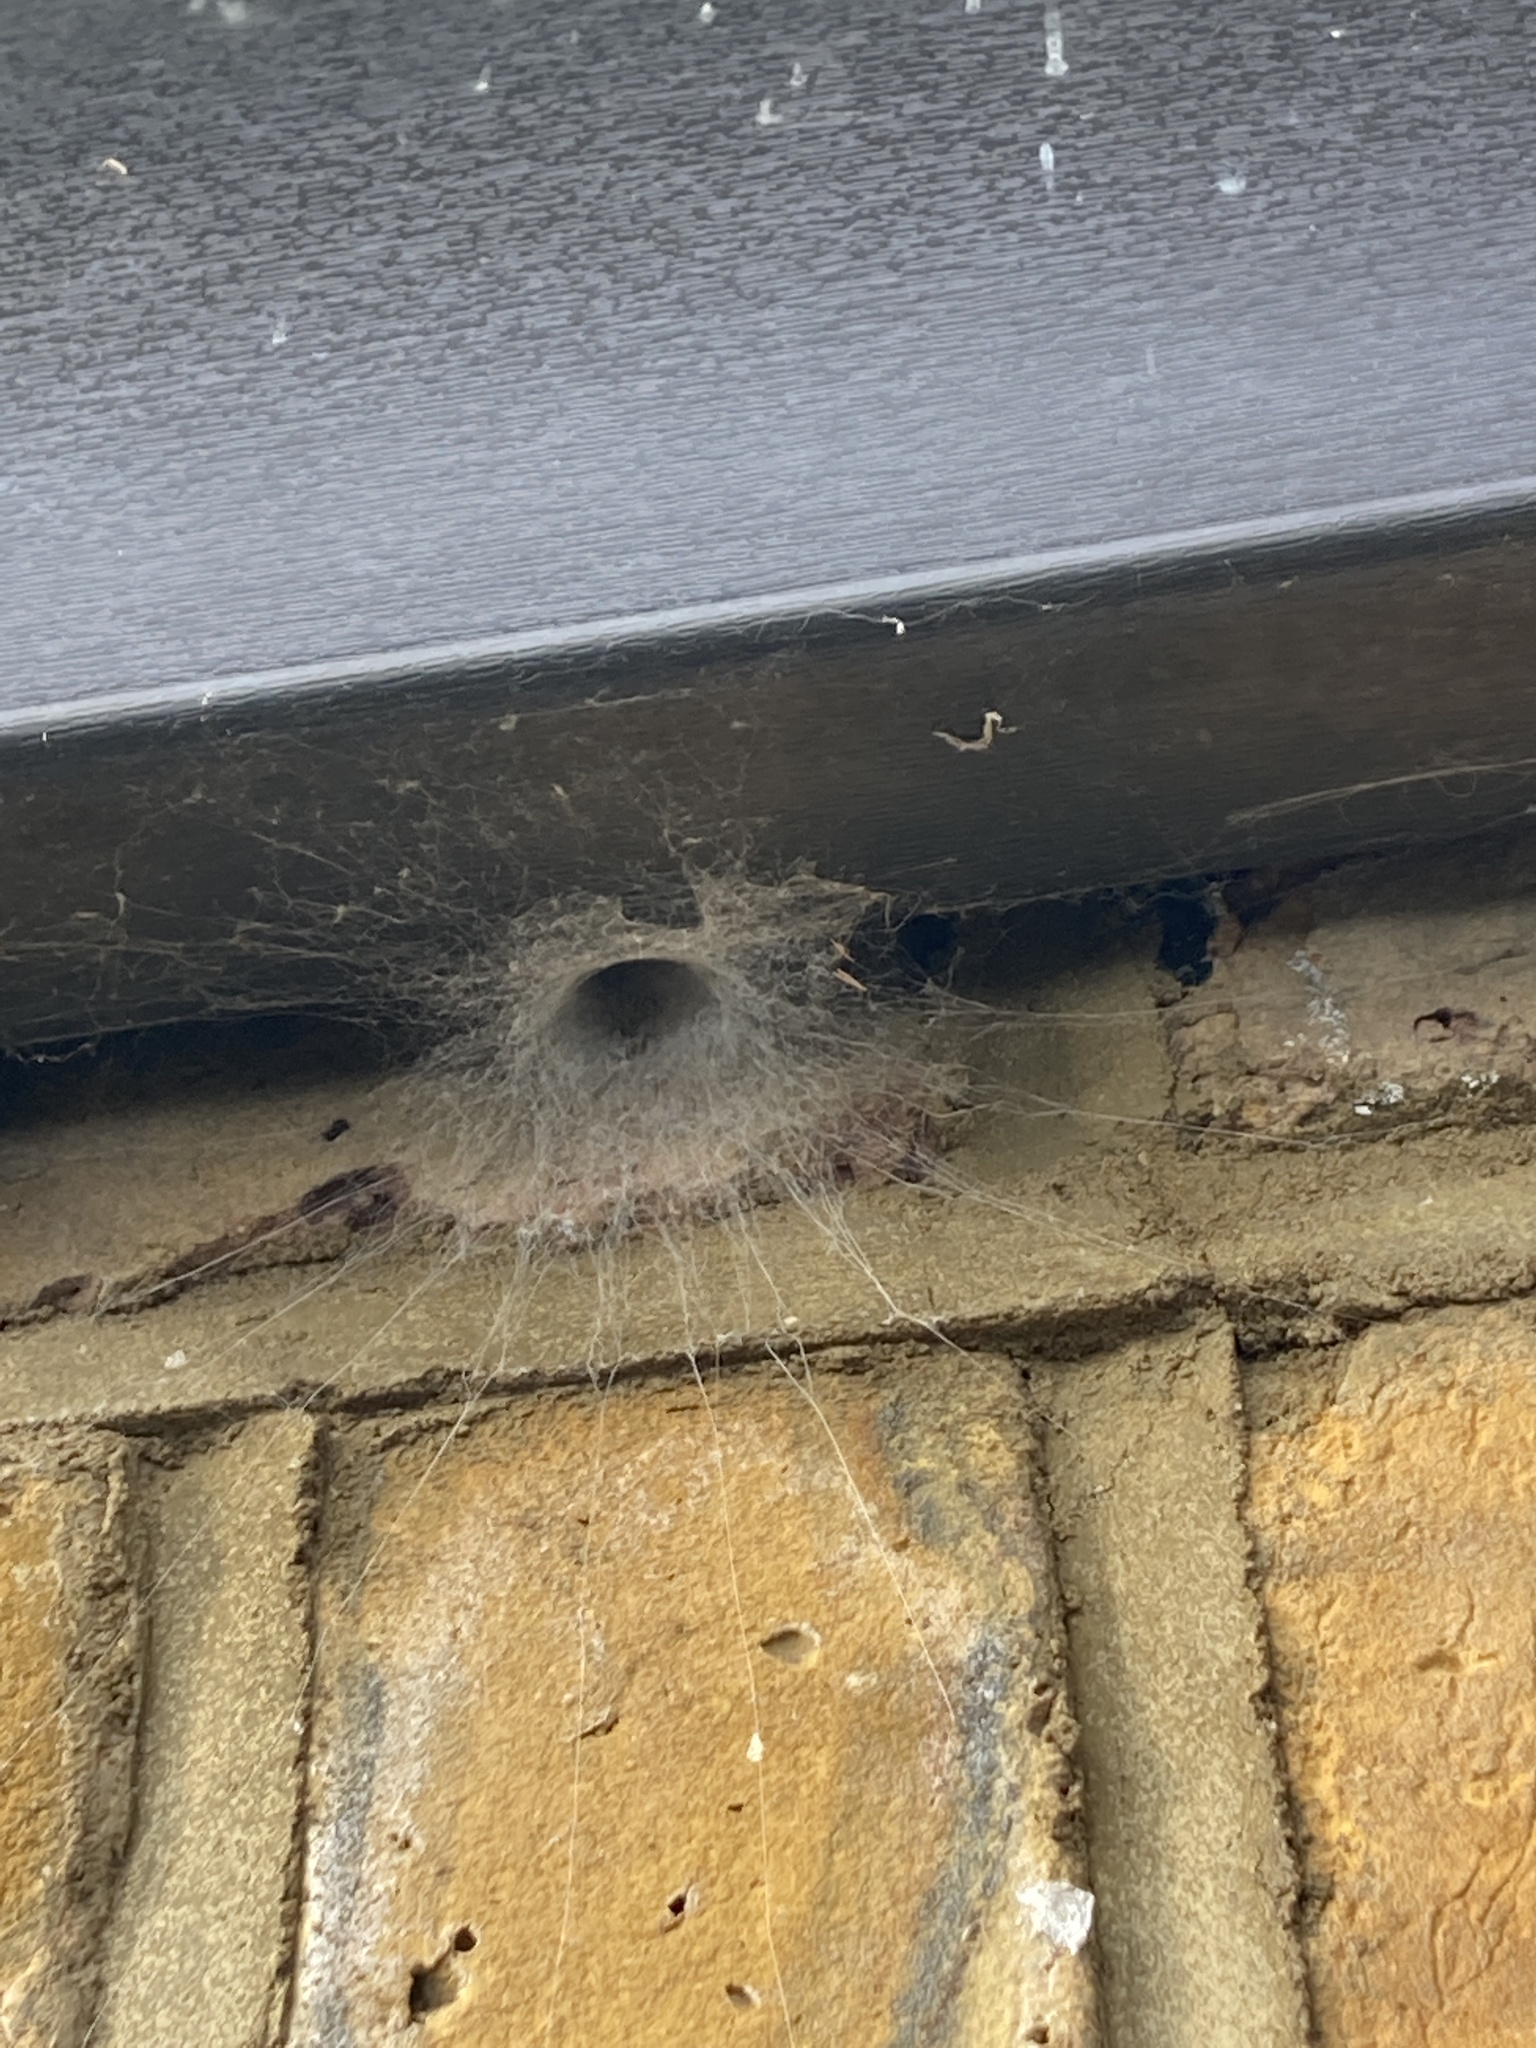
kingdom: Animalia
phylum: Arthropoda
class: Arachnida
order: Araneae
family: Segestriidae
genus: Segestria
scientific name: Segestria florentina
